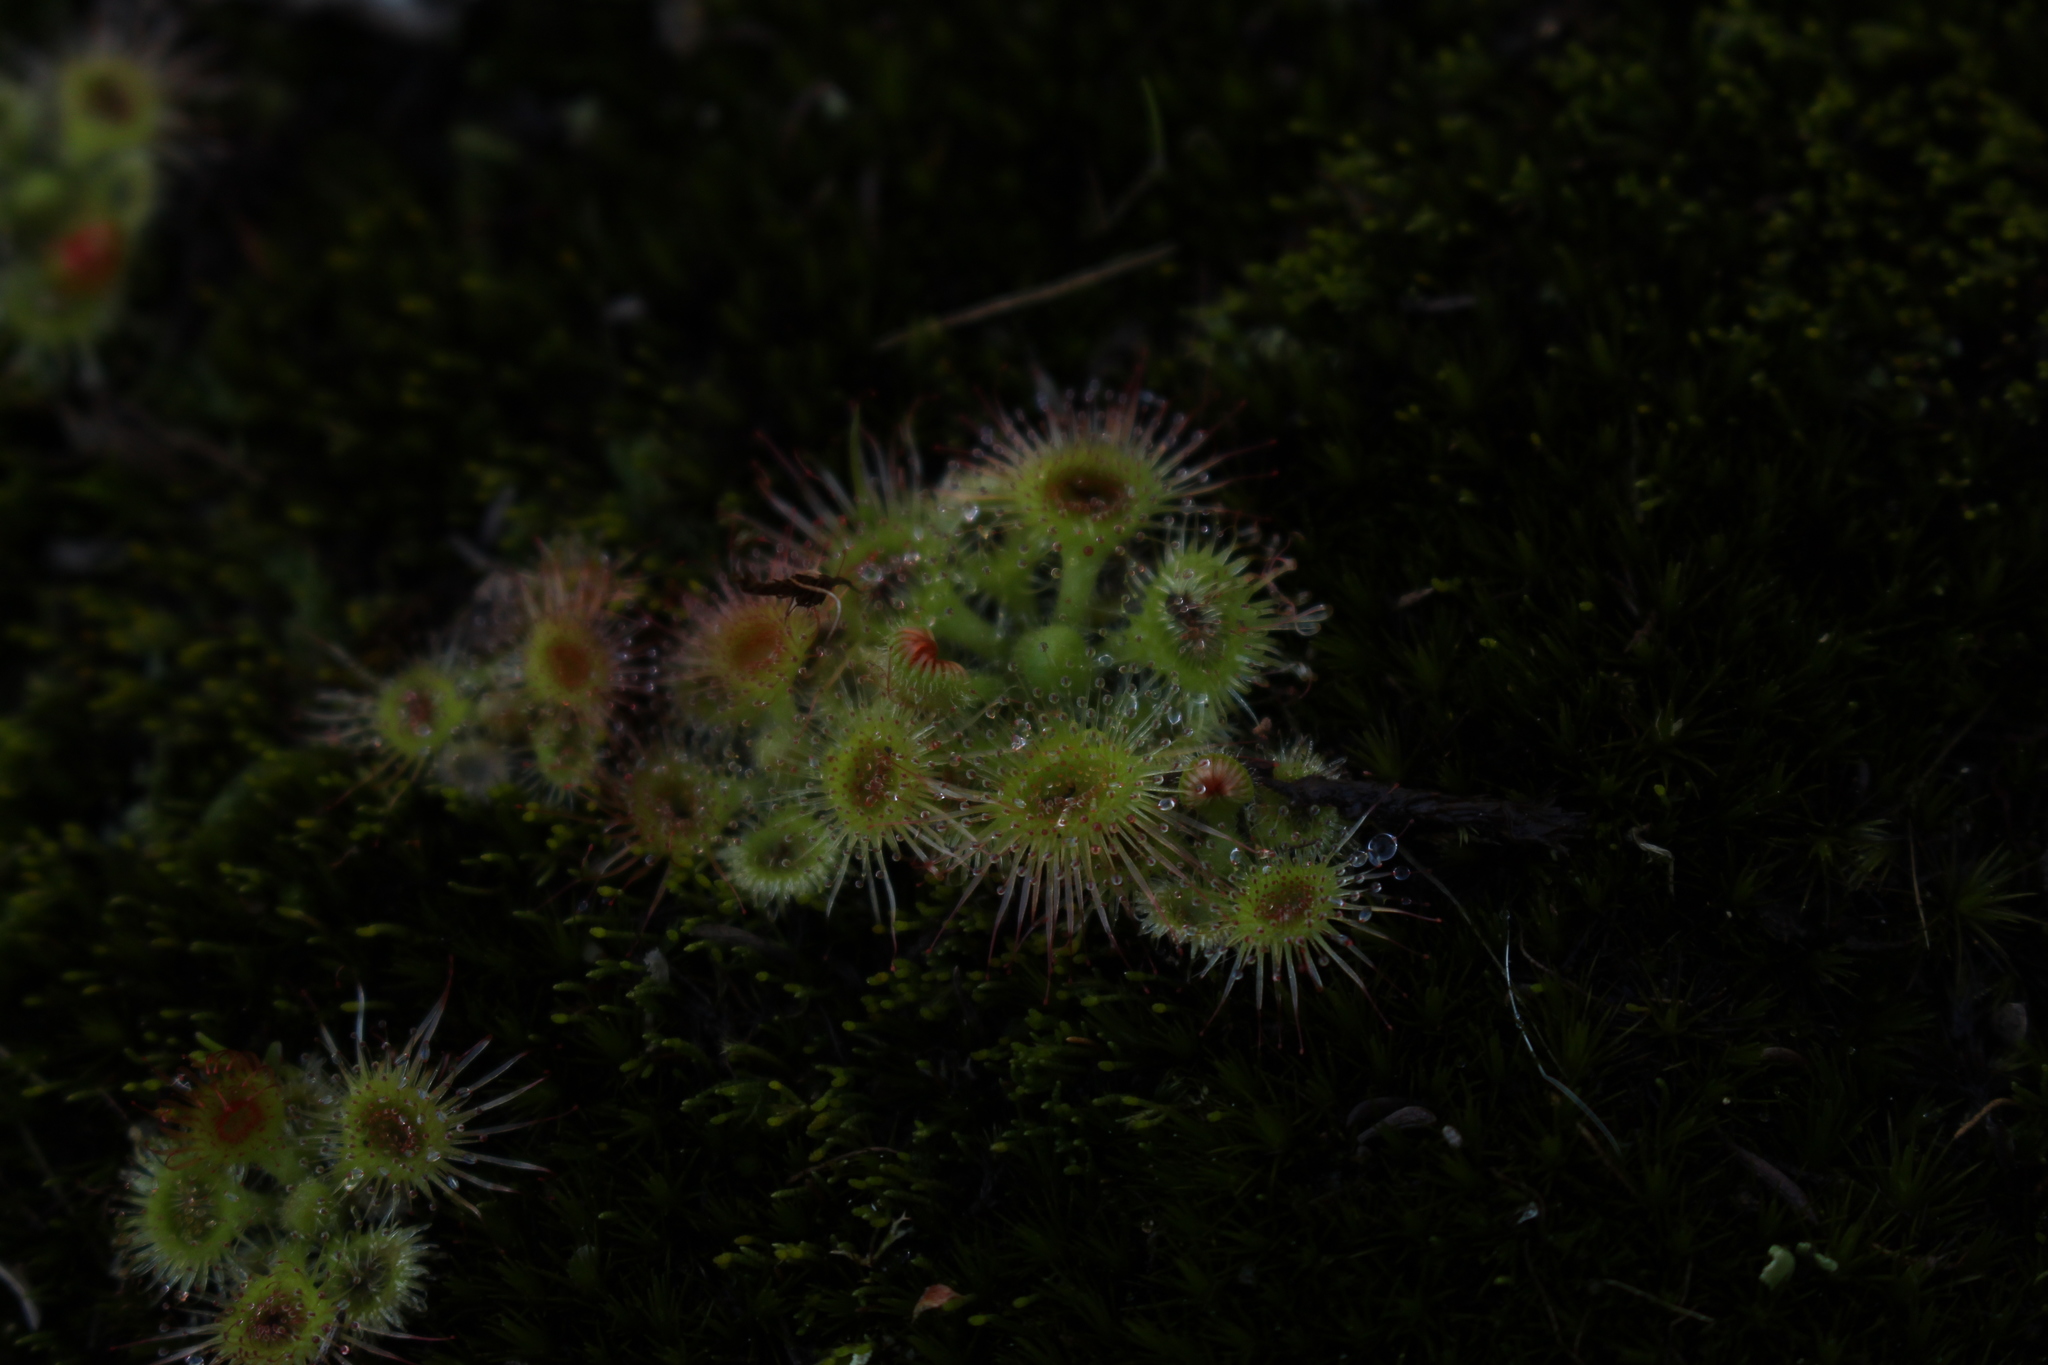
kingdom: Plantae
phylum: Tracheophyta
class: Magnoliopsida
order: Caryophyllales
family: Droseraceae
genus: Drosera
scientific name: Drosera glanduligera
